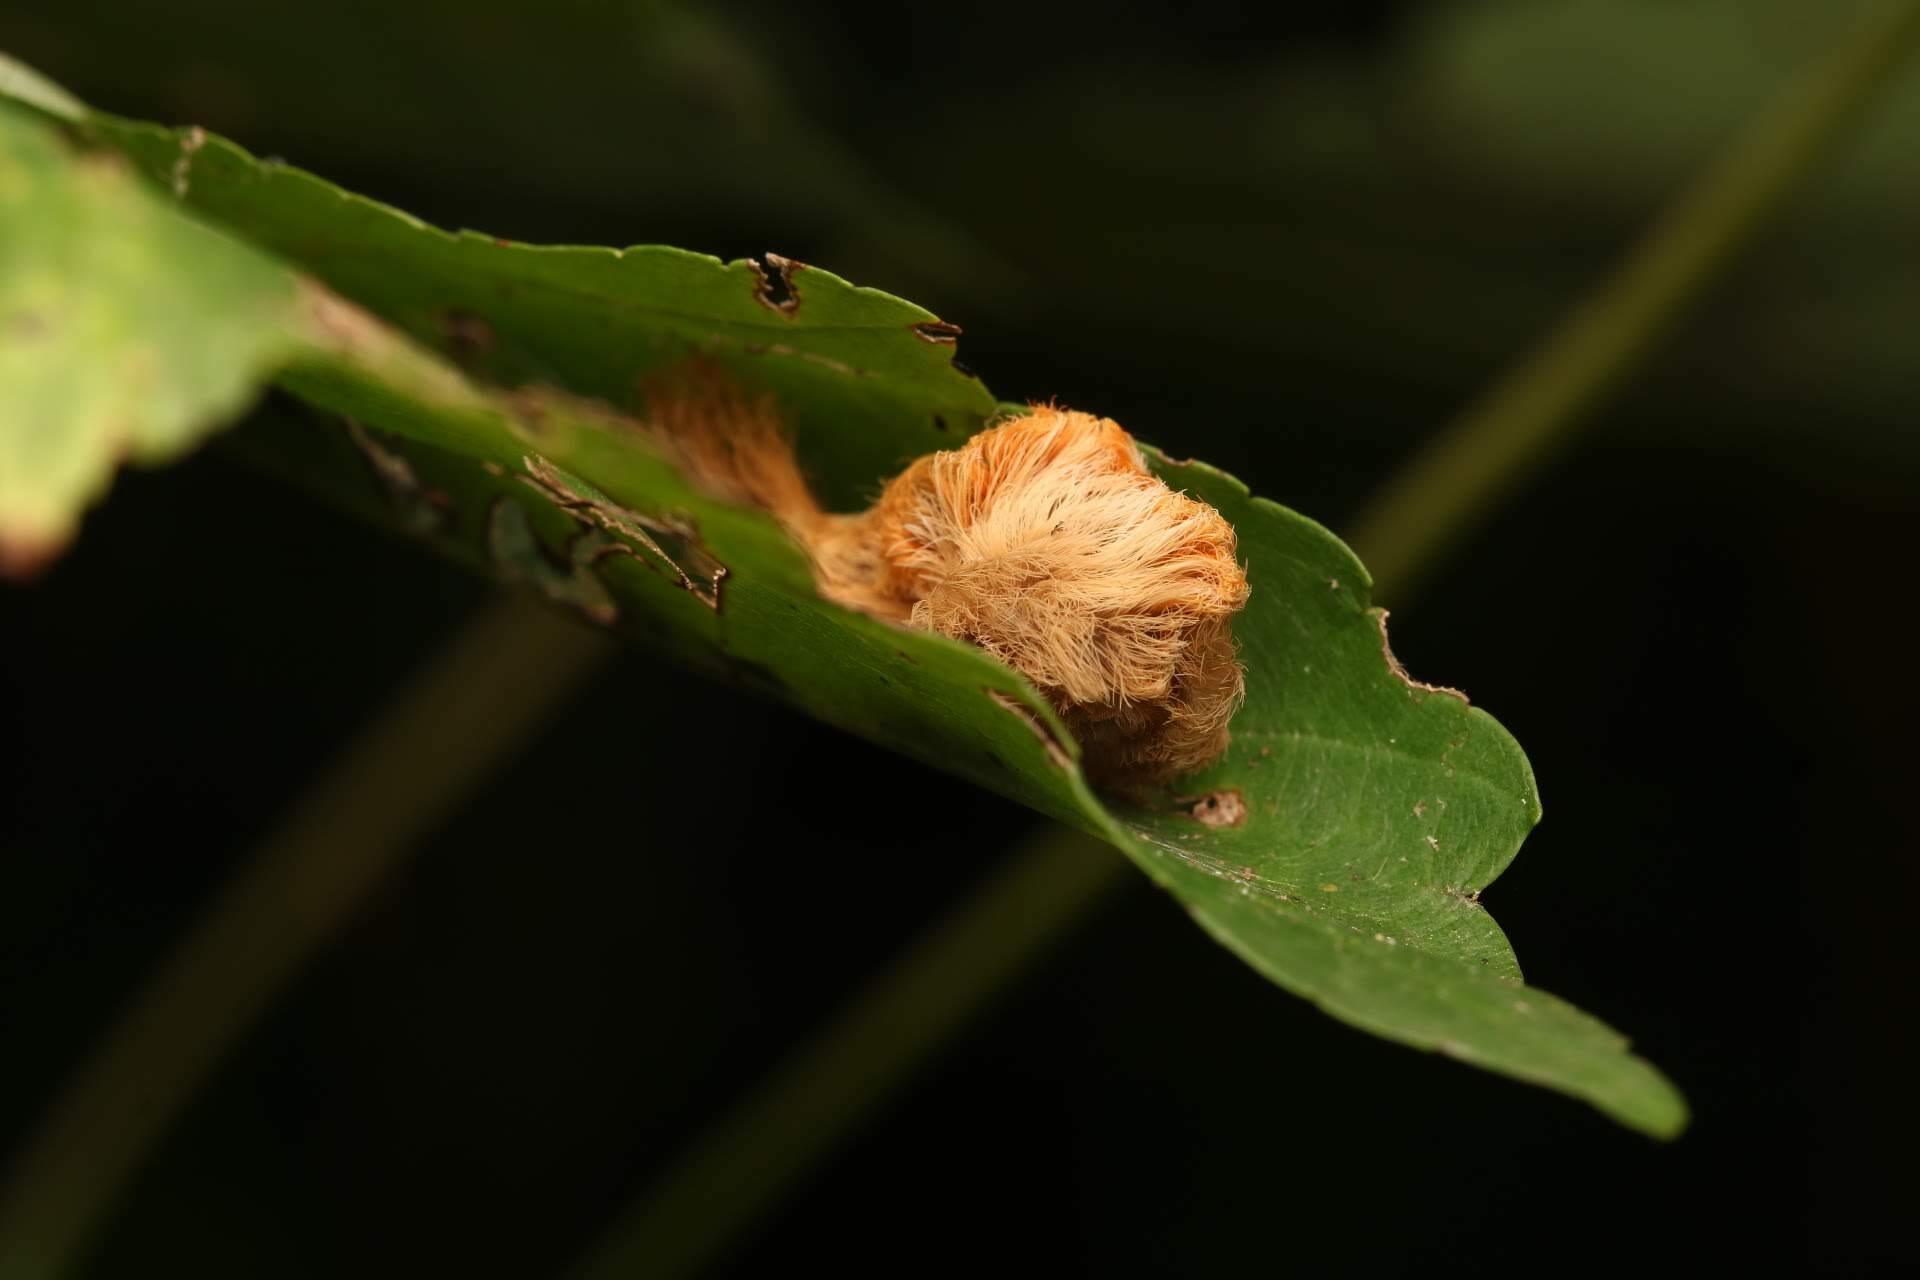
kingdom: Animalia
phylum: Arthropoda
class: Insecta
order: Lepidoptera
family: Megalopygidae
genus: Megalopyge
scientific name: Megalopyge opercularis
